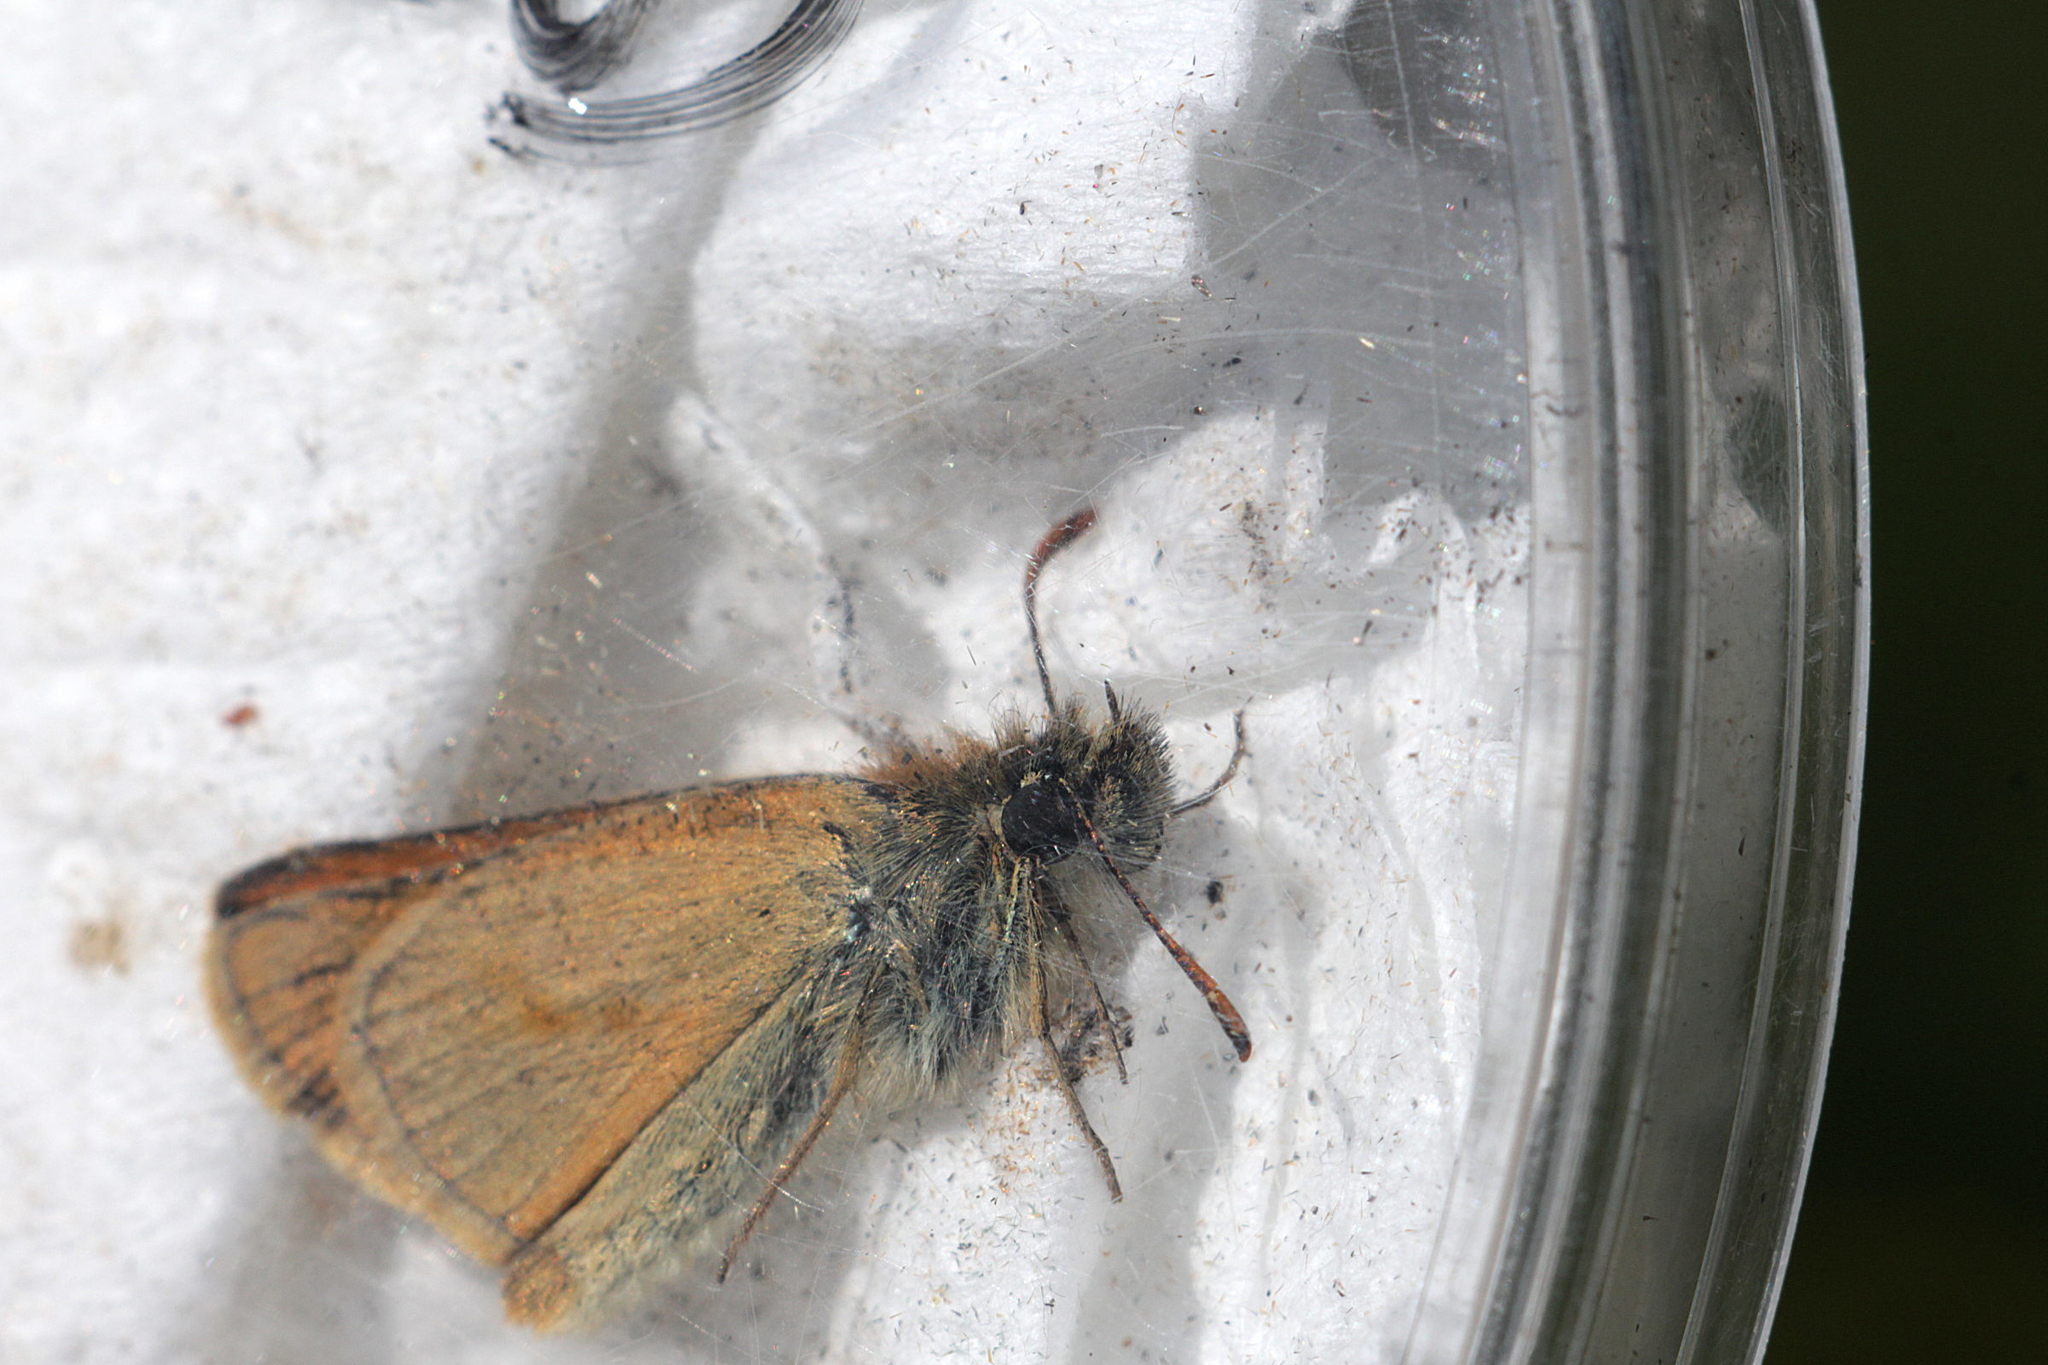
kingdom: Animalia
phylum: Arthropoda
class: Insecta
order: Lepidoptera
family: Hesperiidae
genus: Thymelicus
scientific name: Thymelicus sylvestris
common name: Small skipper
